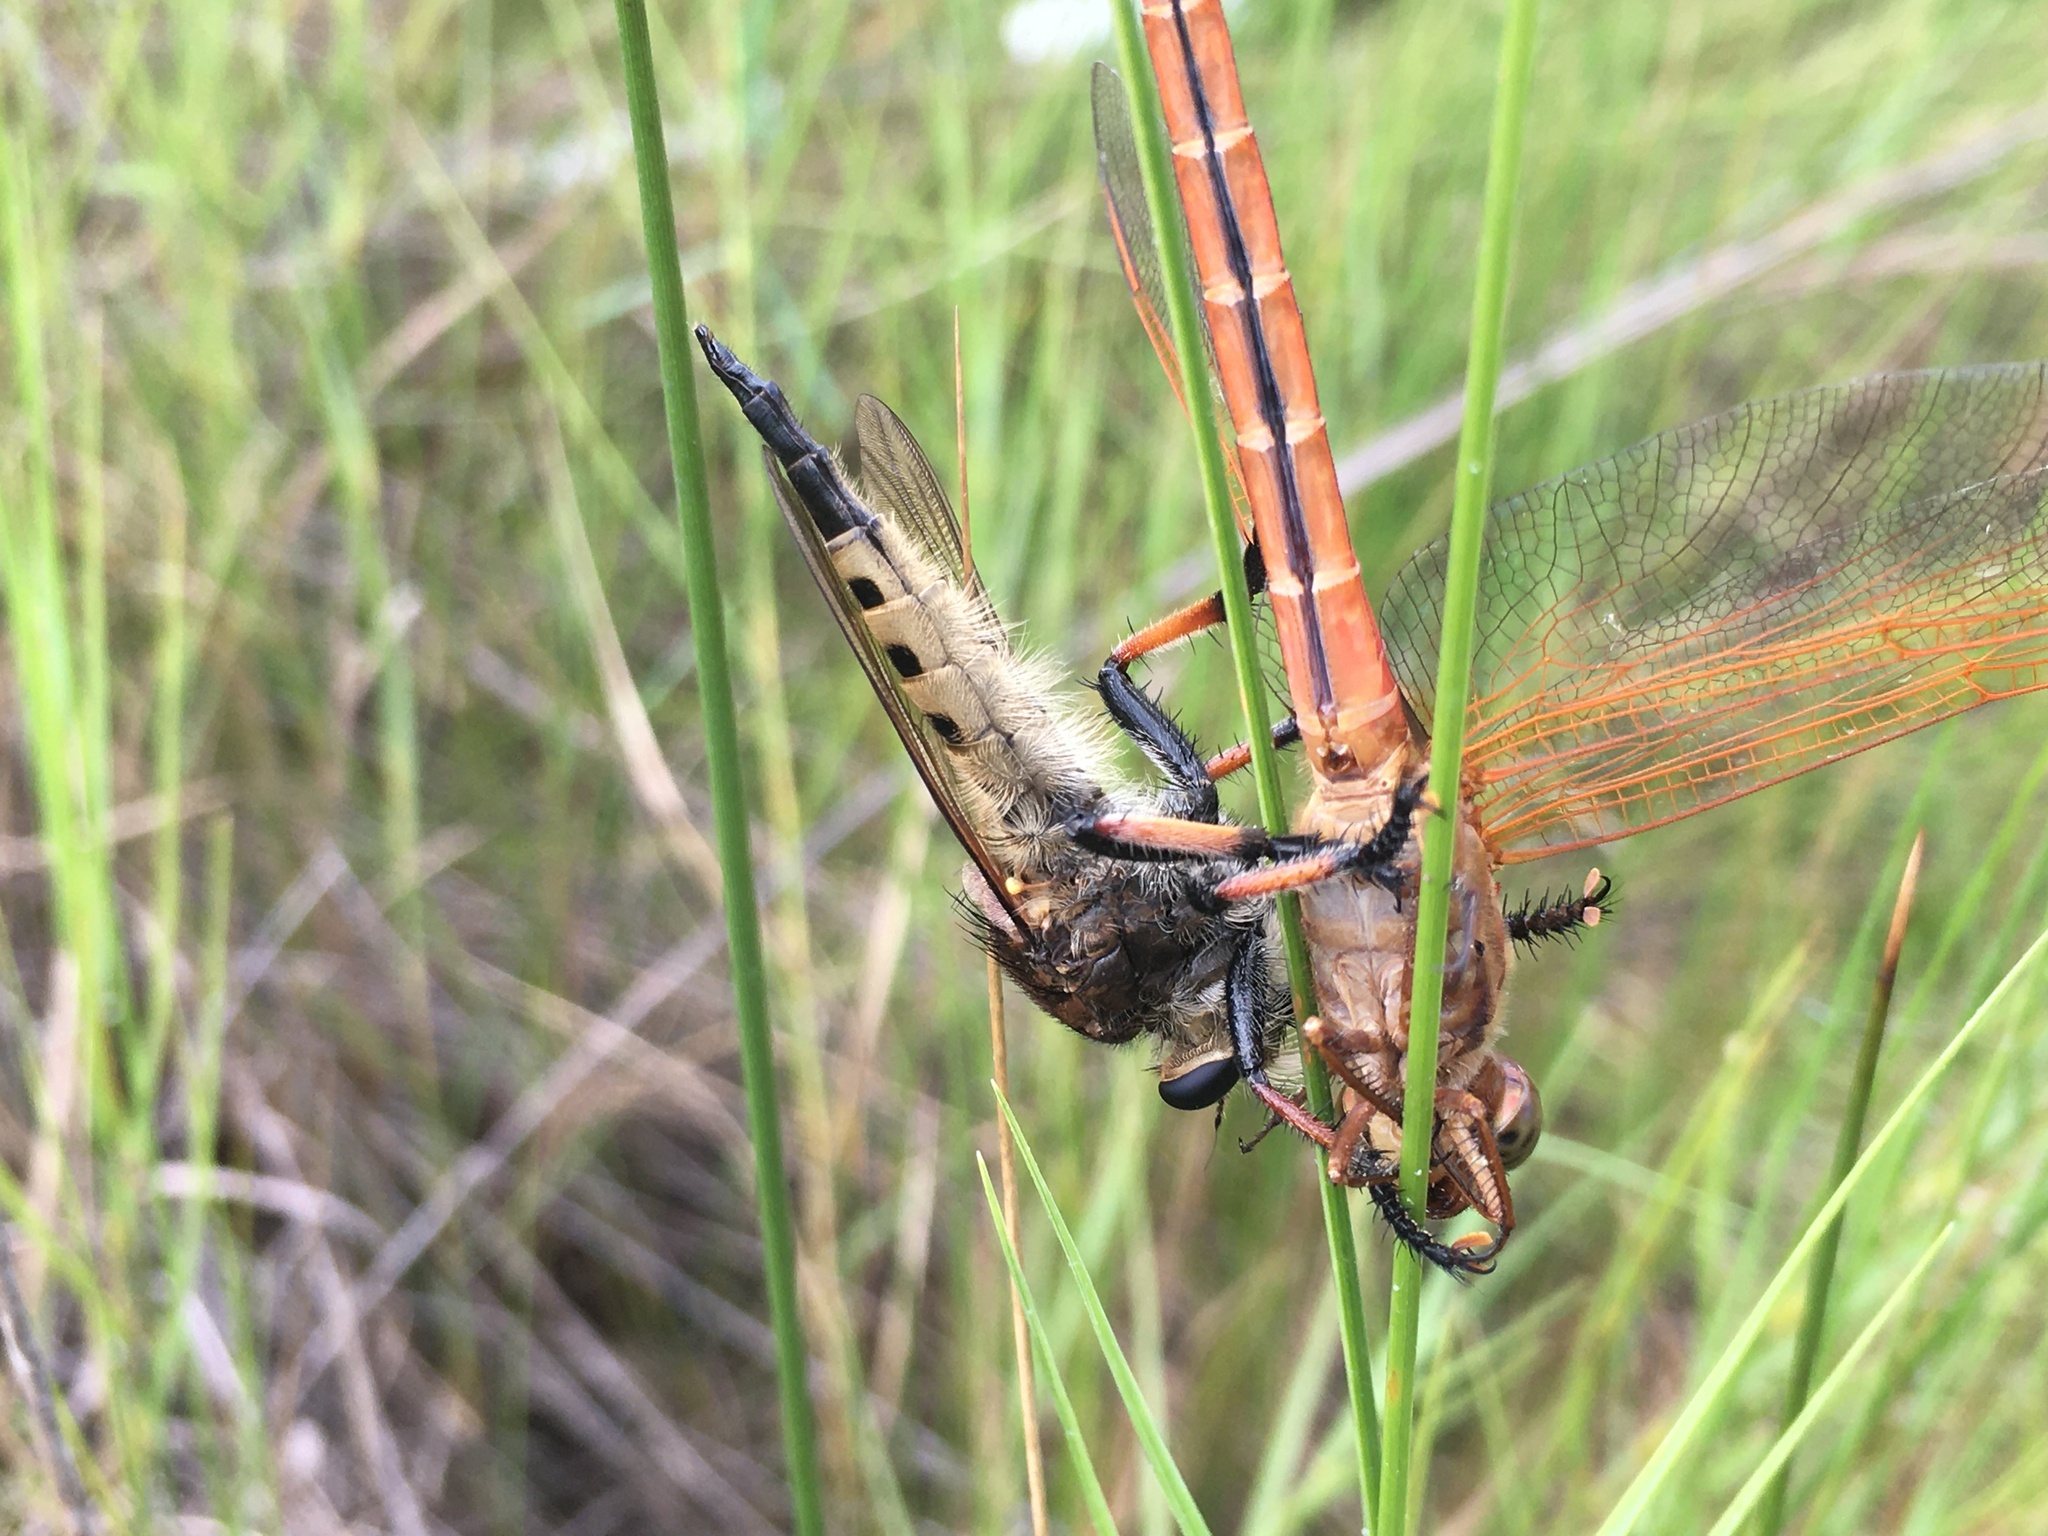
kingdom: Animalia
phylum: Arthropoda
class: Insecta
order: Diptera
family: Asilidae
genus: Promachus
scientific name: Promachus rufipes
